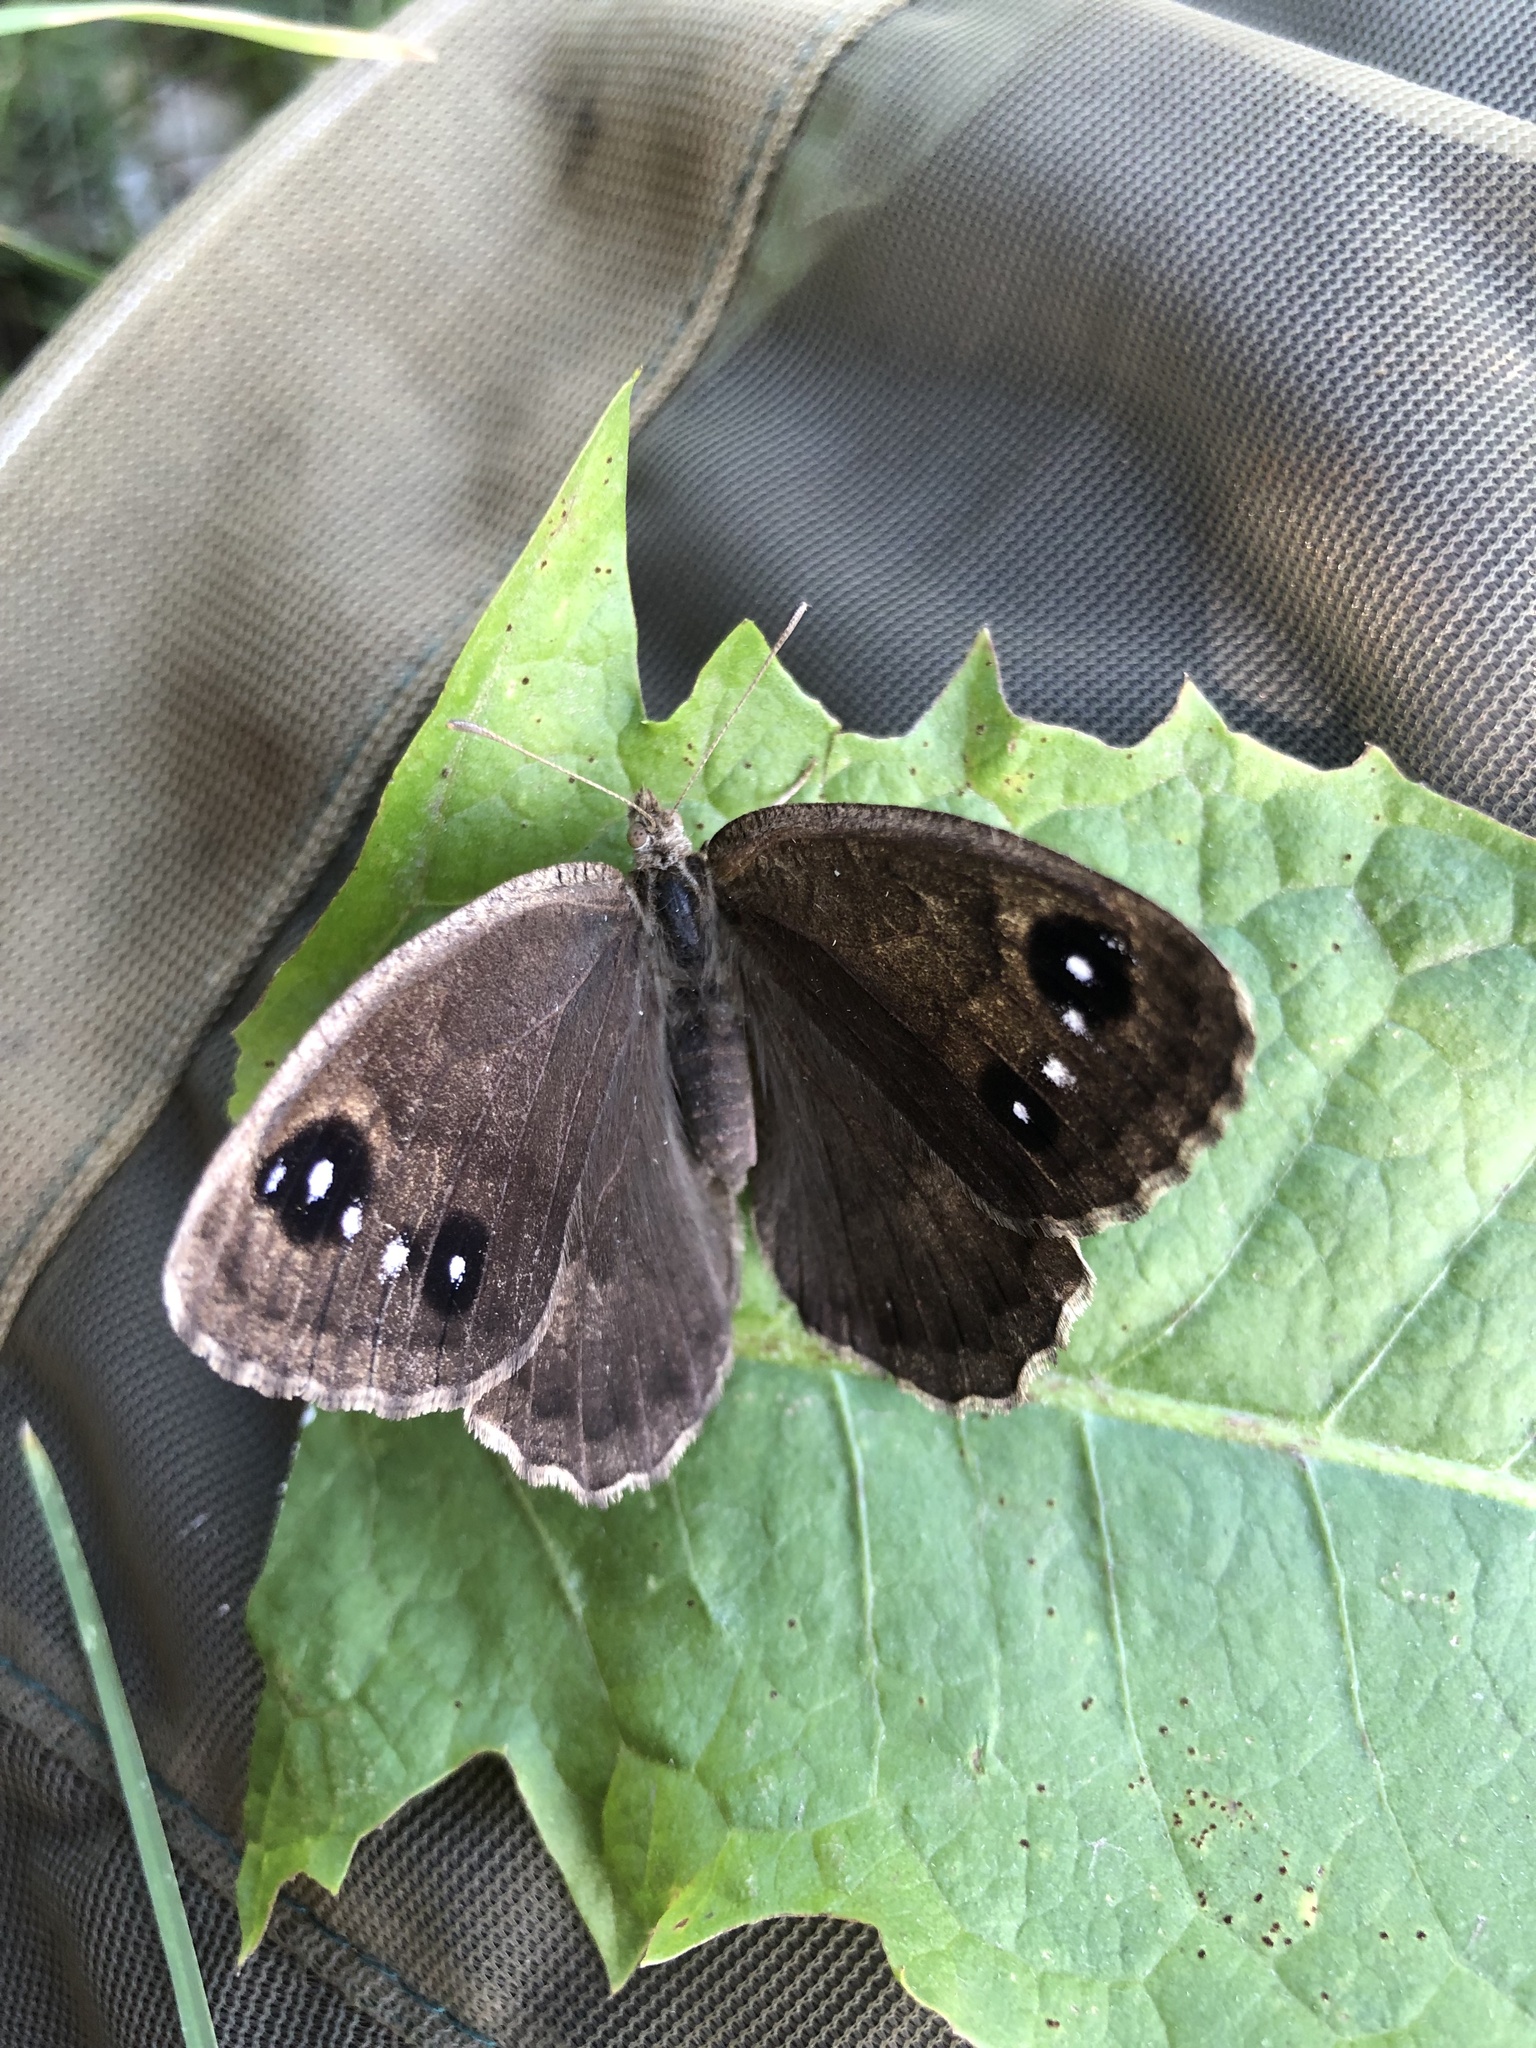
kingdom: Animalia
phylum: Arthropoda
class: Insecta
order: Lepidoptera
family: Nymphalidae
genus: Satyrus
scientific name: Satyrus ferula
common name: Great sooty satyr
